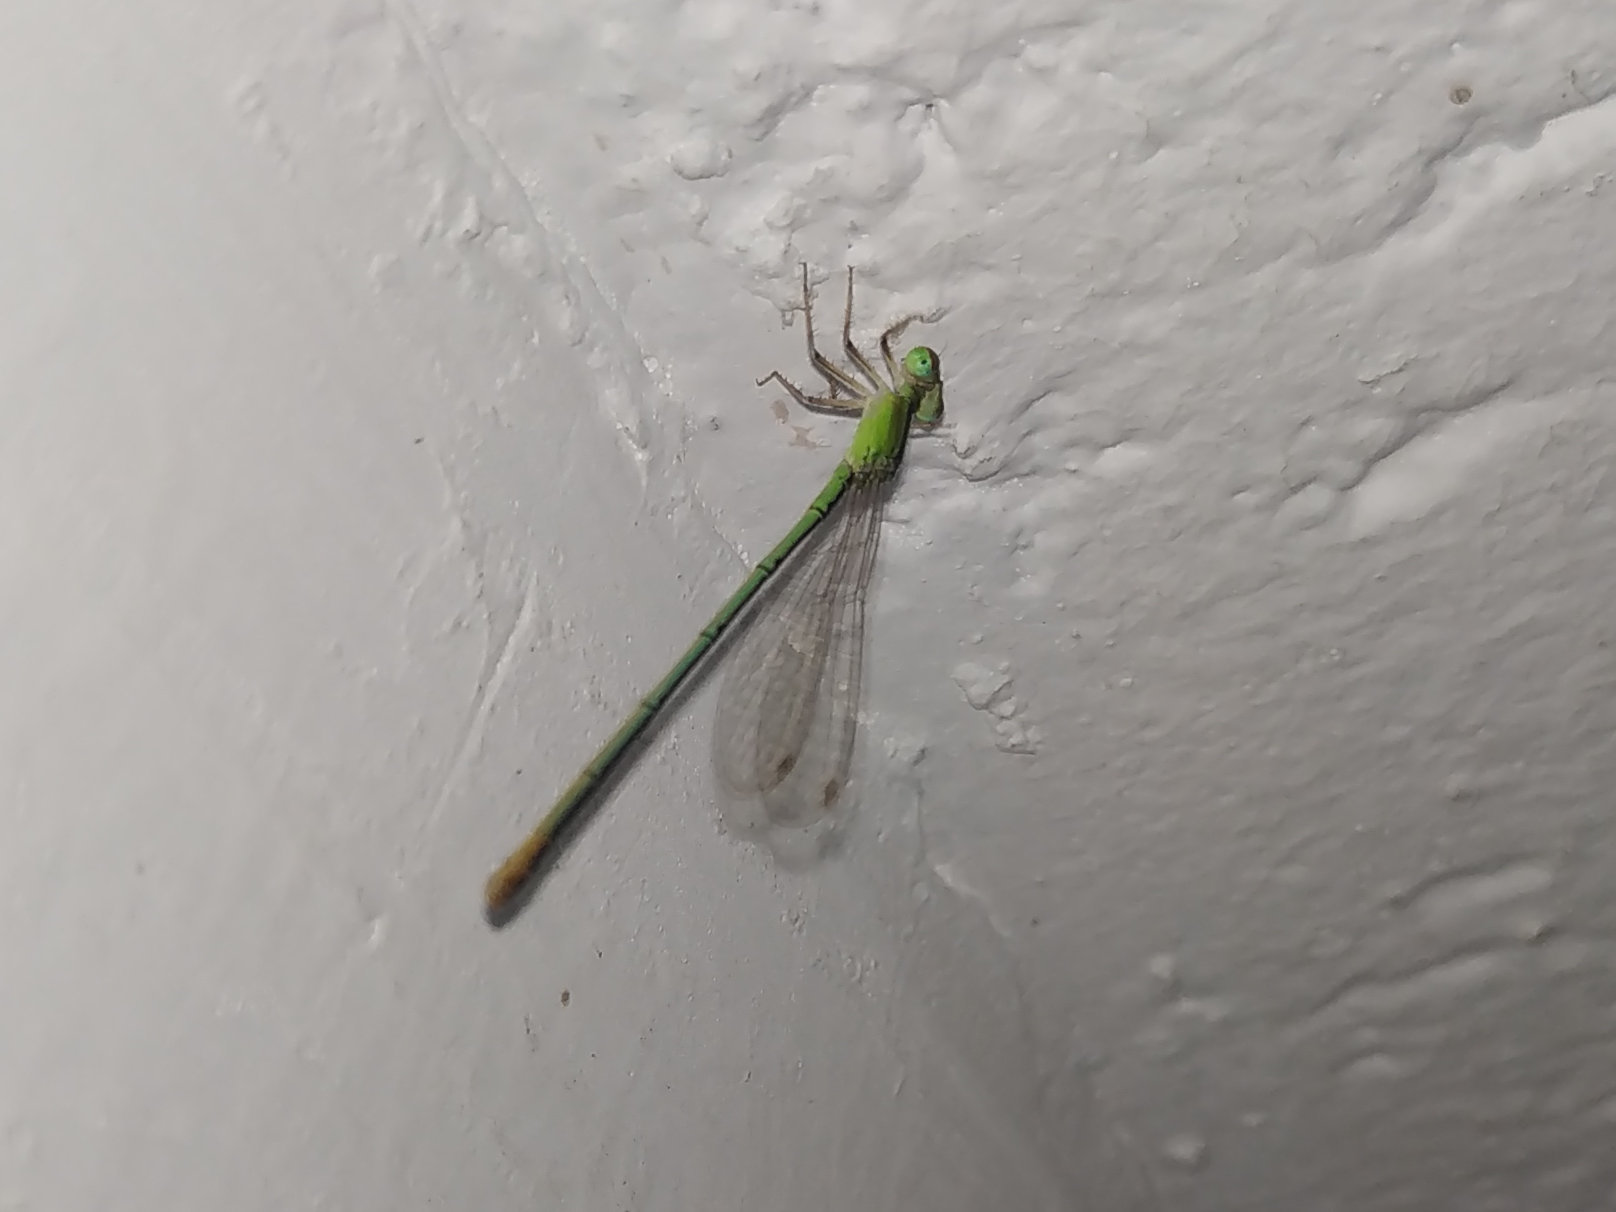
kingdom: Animalia
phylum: Arthropoda
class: Insecta
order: Odonata
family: Coenagrionidae
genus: Agriocnemis
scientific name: Agriocnemis pygmaea
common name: Pygmy wisp
